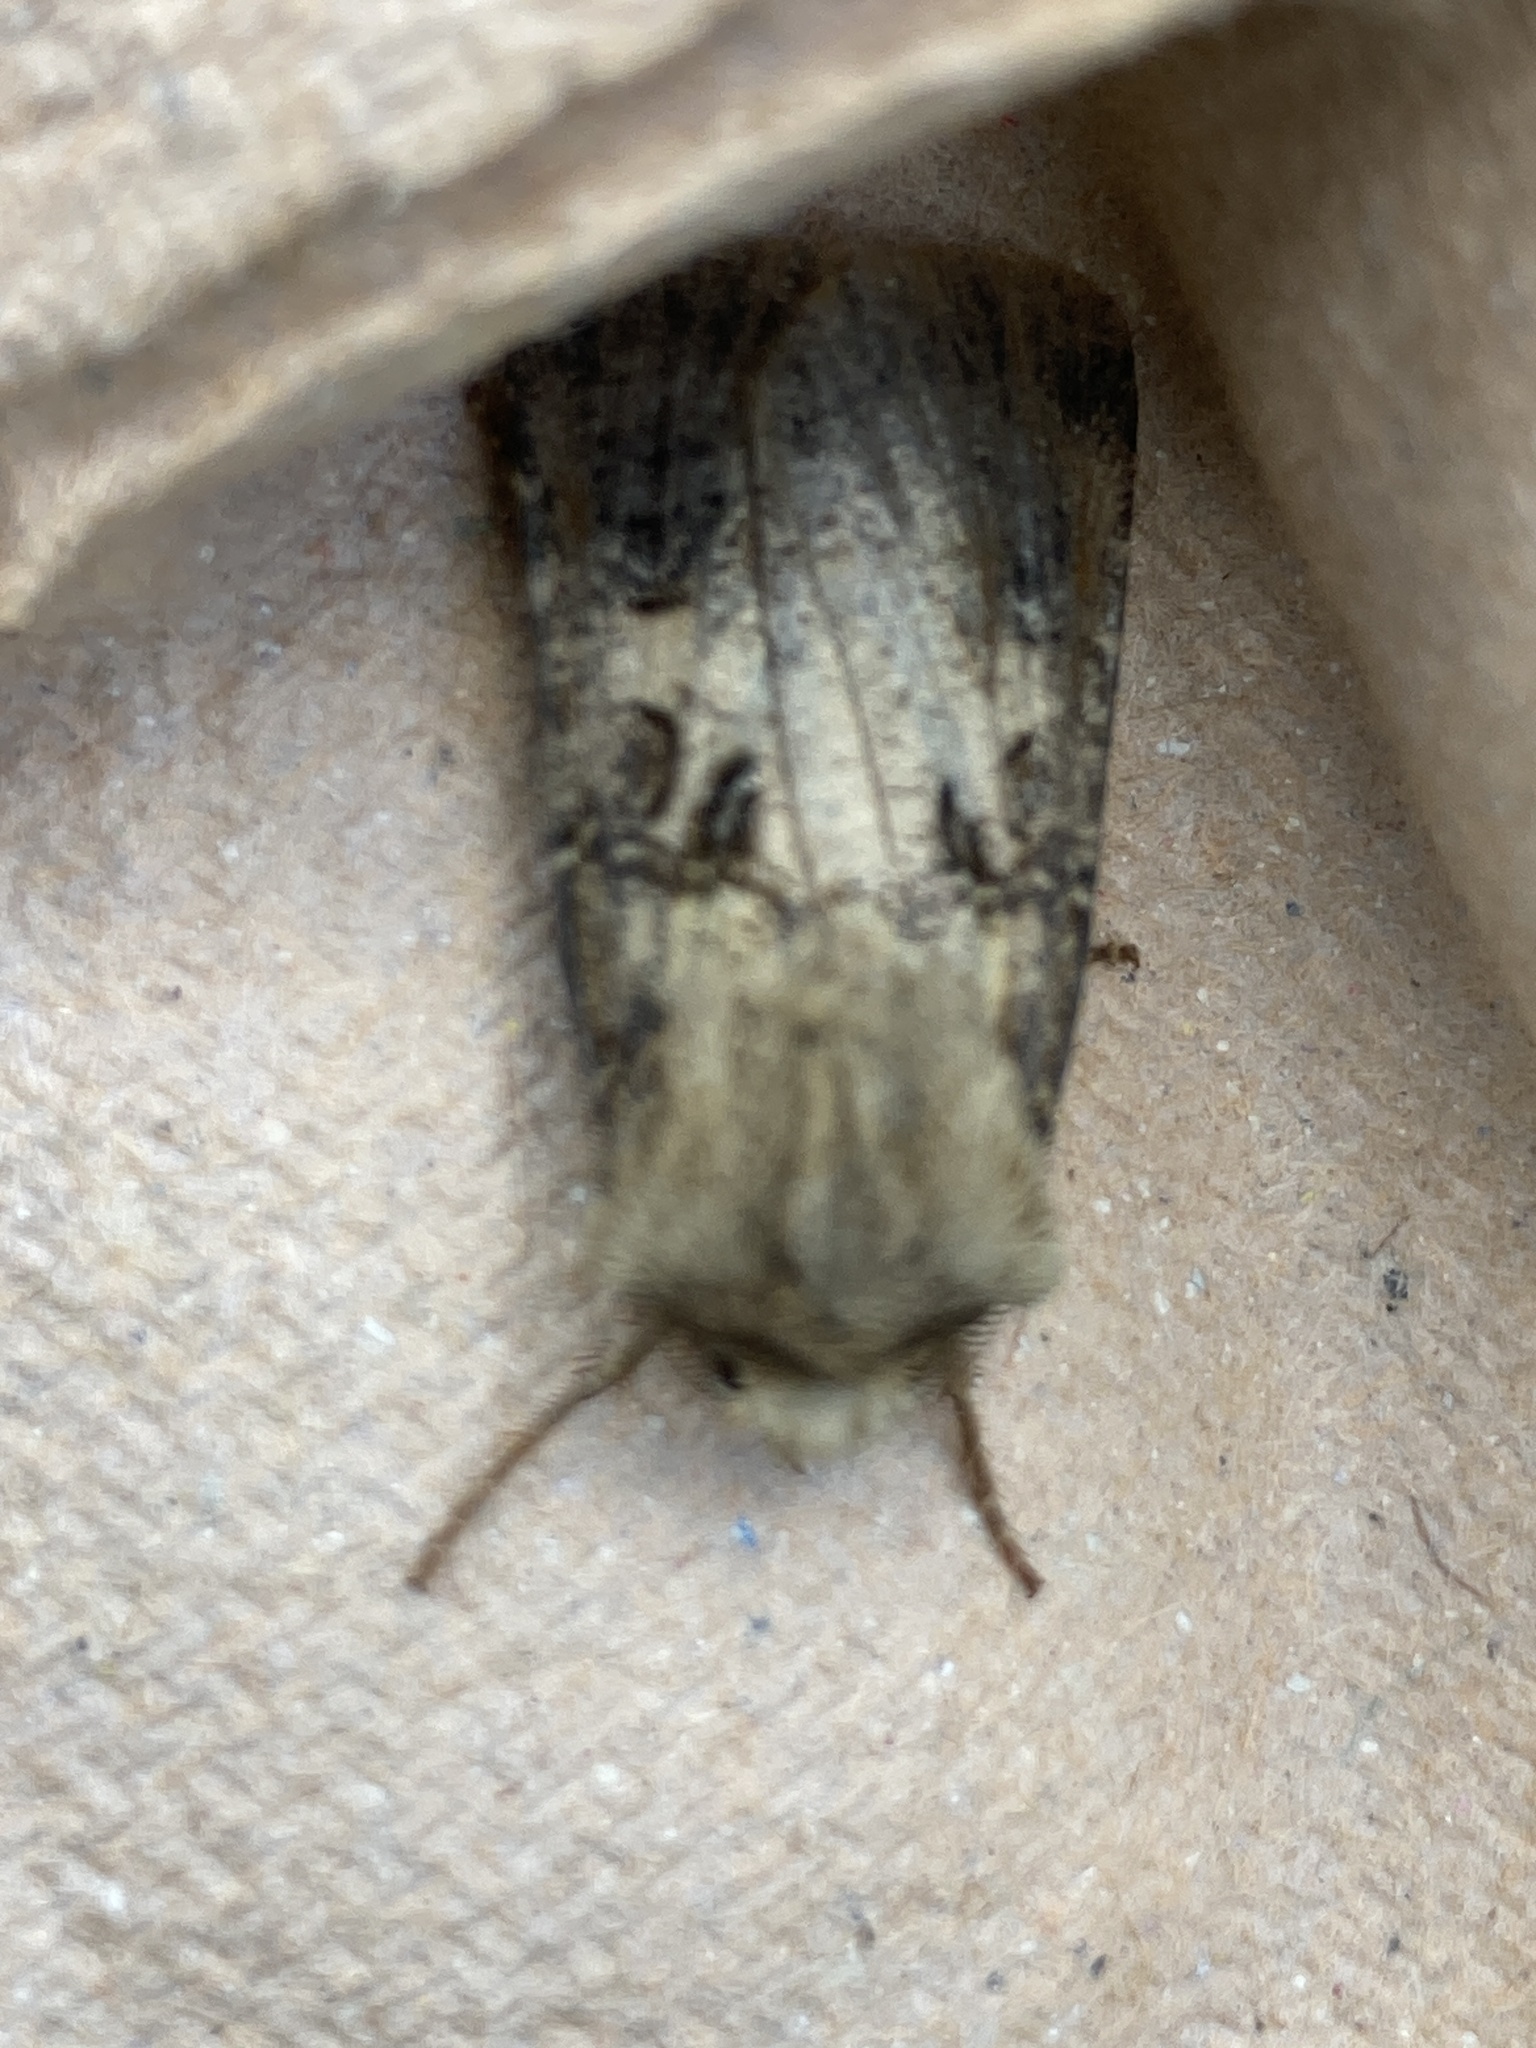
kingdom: Animalia
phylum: Arthropoda
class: Insecta
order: Lepidoptera
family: Noctuidae
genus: Agrotis
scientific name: Agrotis clavis
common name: Heart and club
